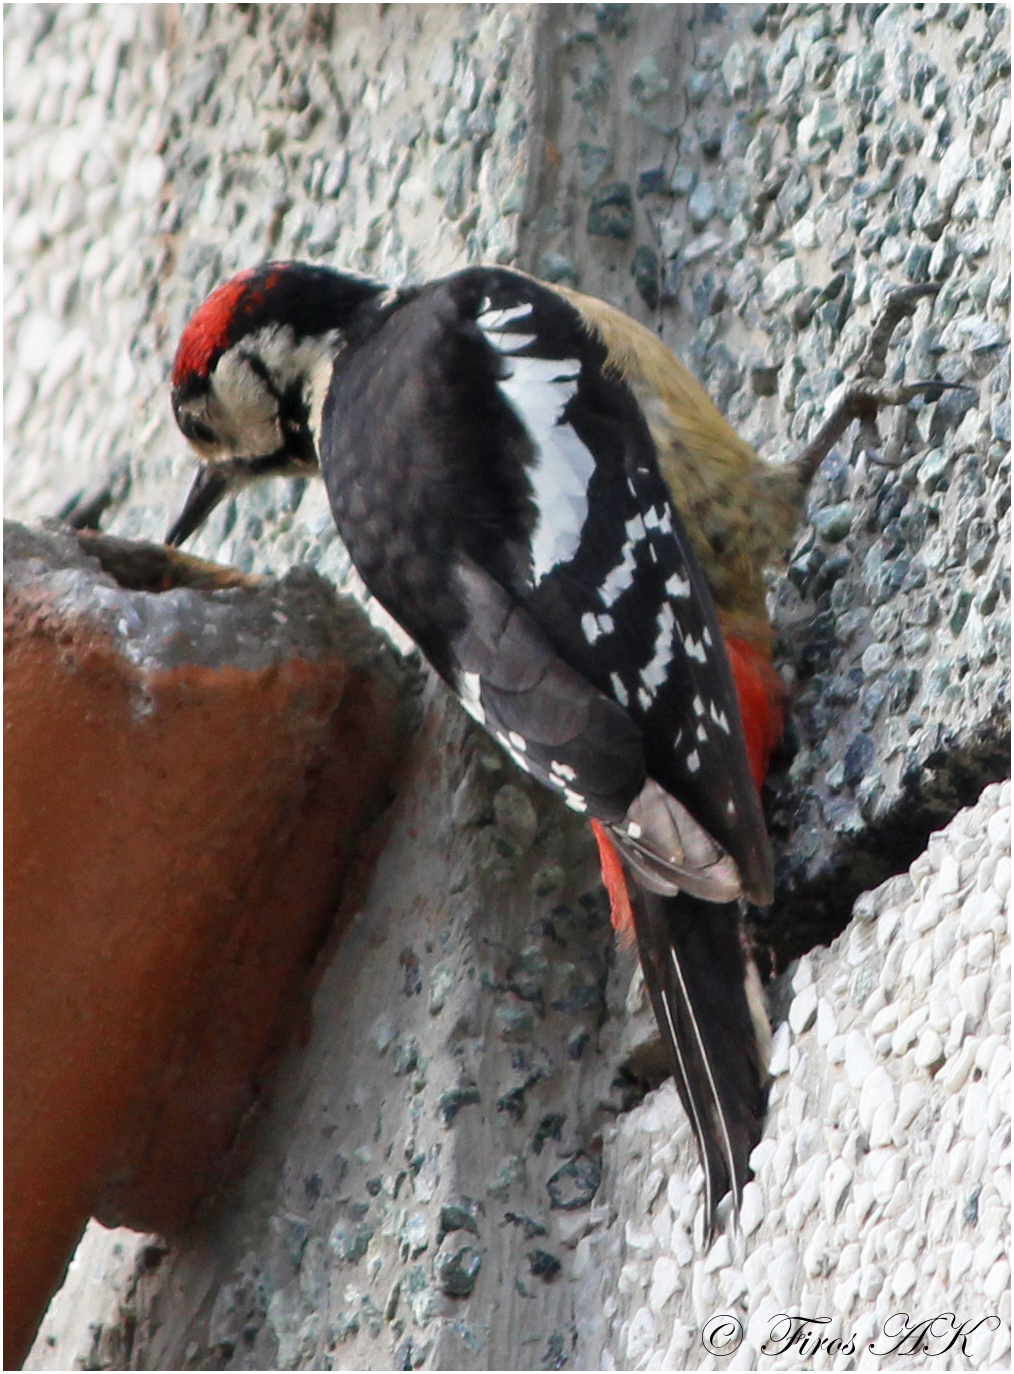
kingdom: Animalia
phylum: Chordata
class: Aves
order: Piciformes
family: Picidae
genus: Dendrocopos
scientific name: Dendrocopos himalayensis
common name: Himalayan woodpecker
